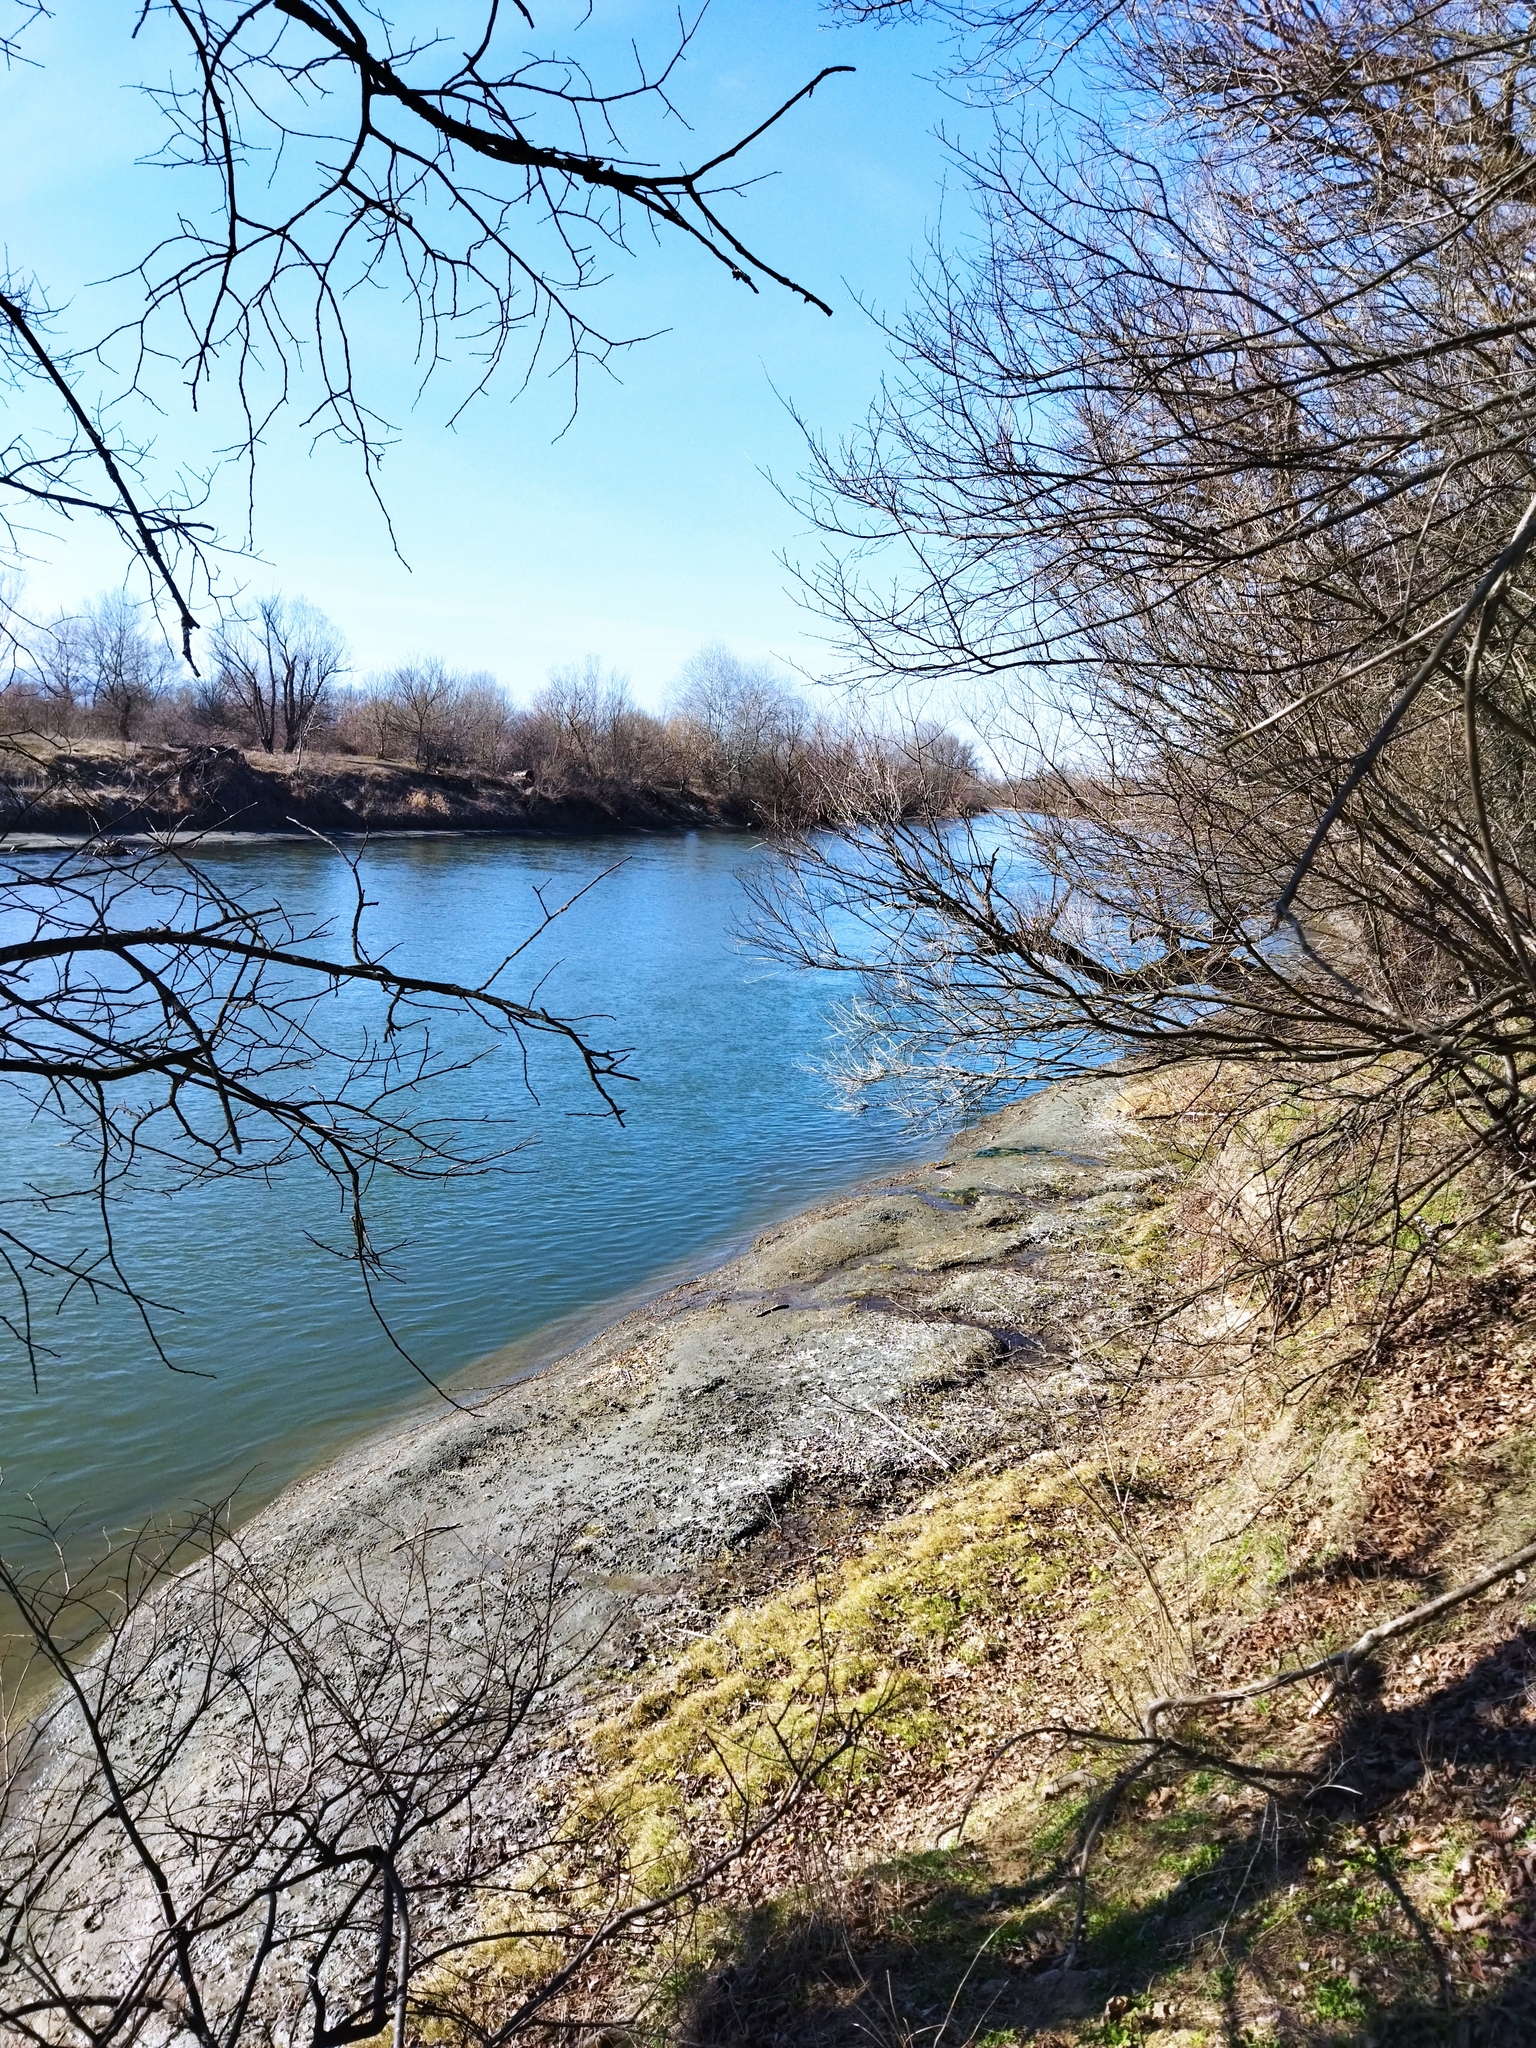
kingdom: Animalia
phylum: Chordata
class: Mammalia
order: Carnivora
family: Mustelidae
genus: Lutra
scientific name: Lutra lutra
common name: European otter
